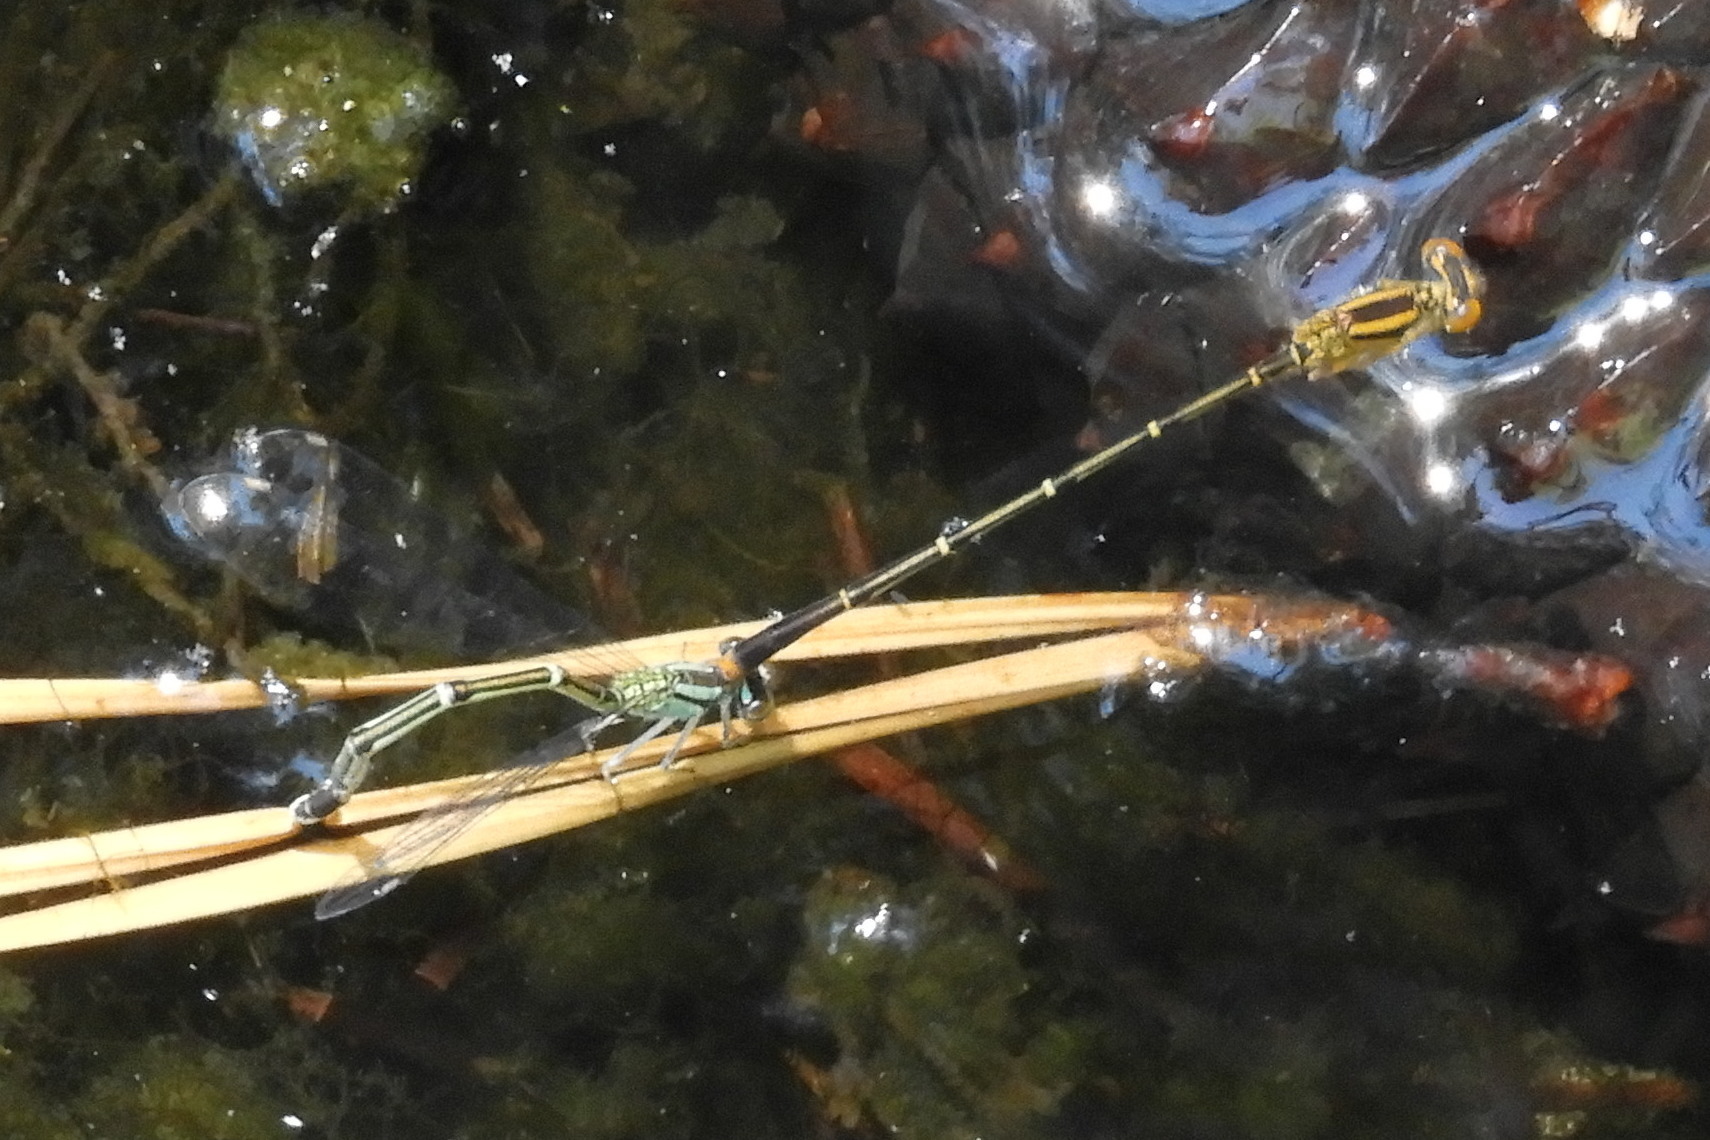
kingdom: Animalia
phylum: Arthropoda
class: Insecta
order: Odonata
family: Coenagrionidae
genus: Enallagma
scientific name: Enallagma signatum
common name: Orange bluet
